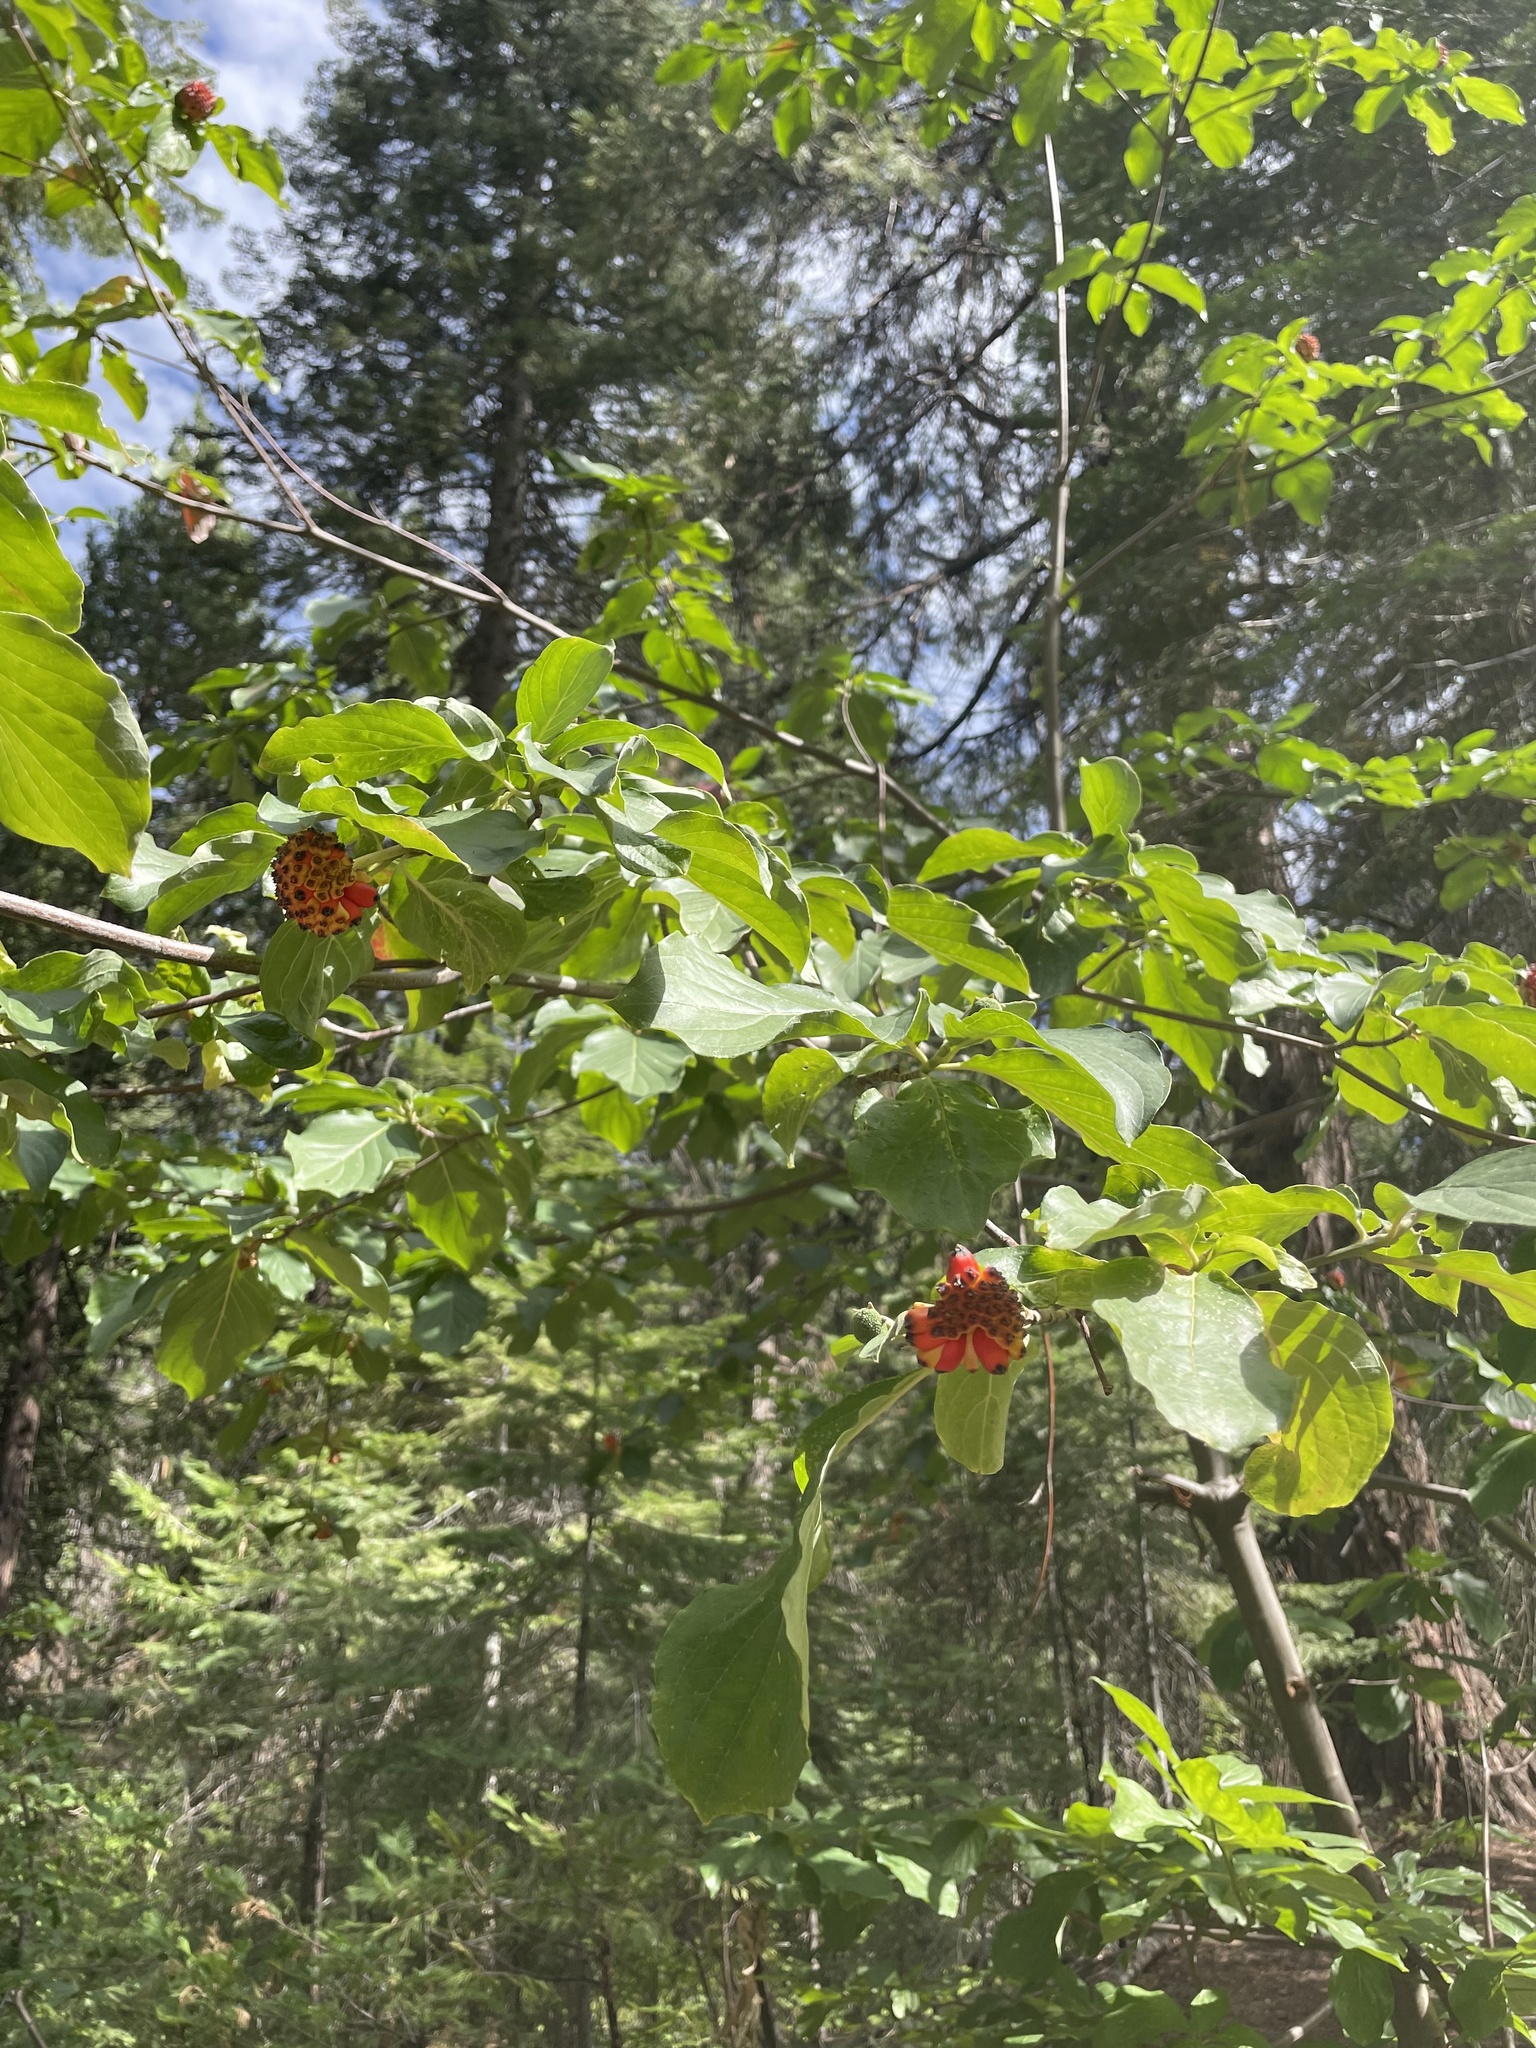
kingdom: Plantae
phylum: Tracheophyta
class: Magnoliopsida
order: Cornales
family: Cornaceae
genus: Cornus
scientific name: Cornus nuttallii
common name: Pacific dogwood
